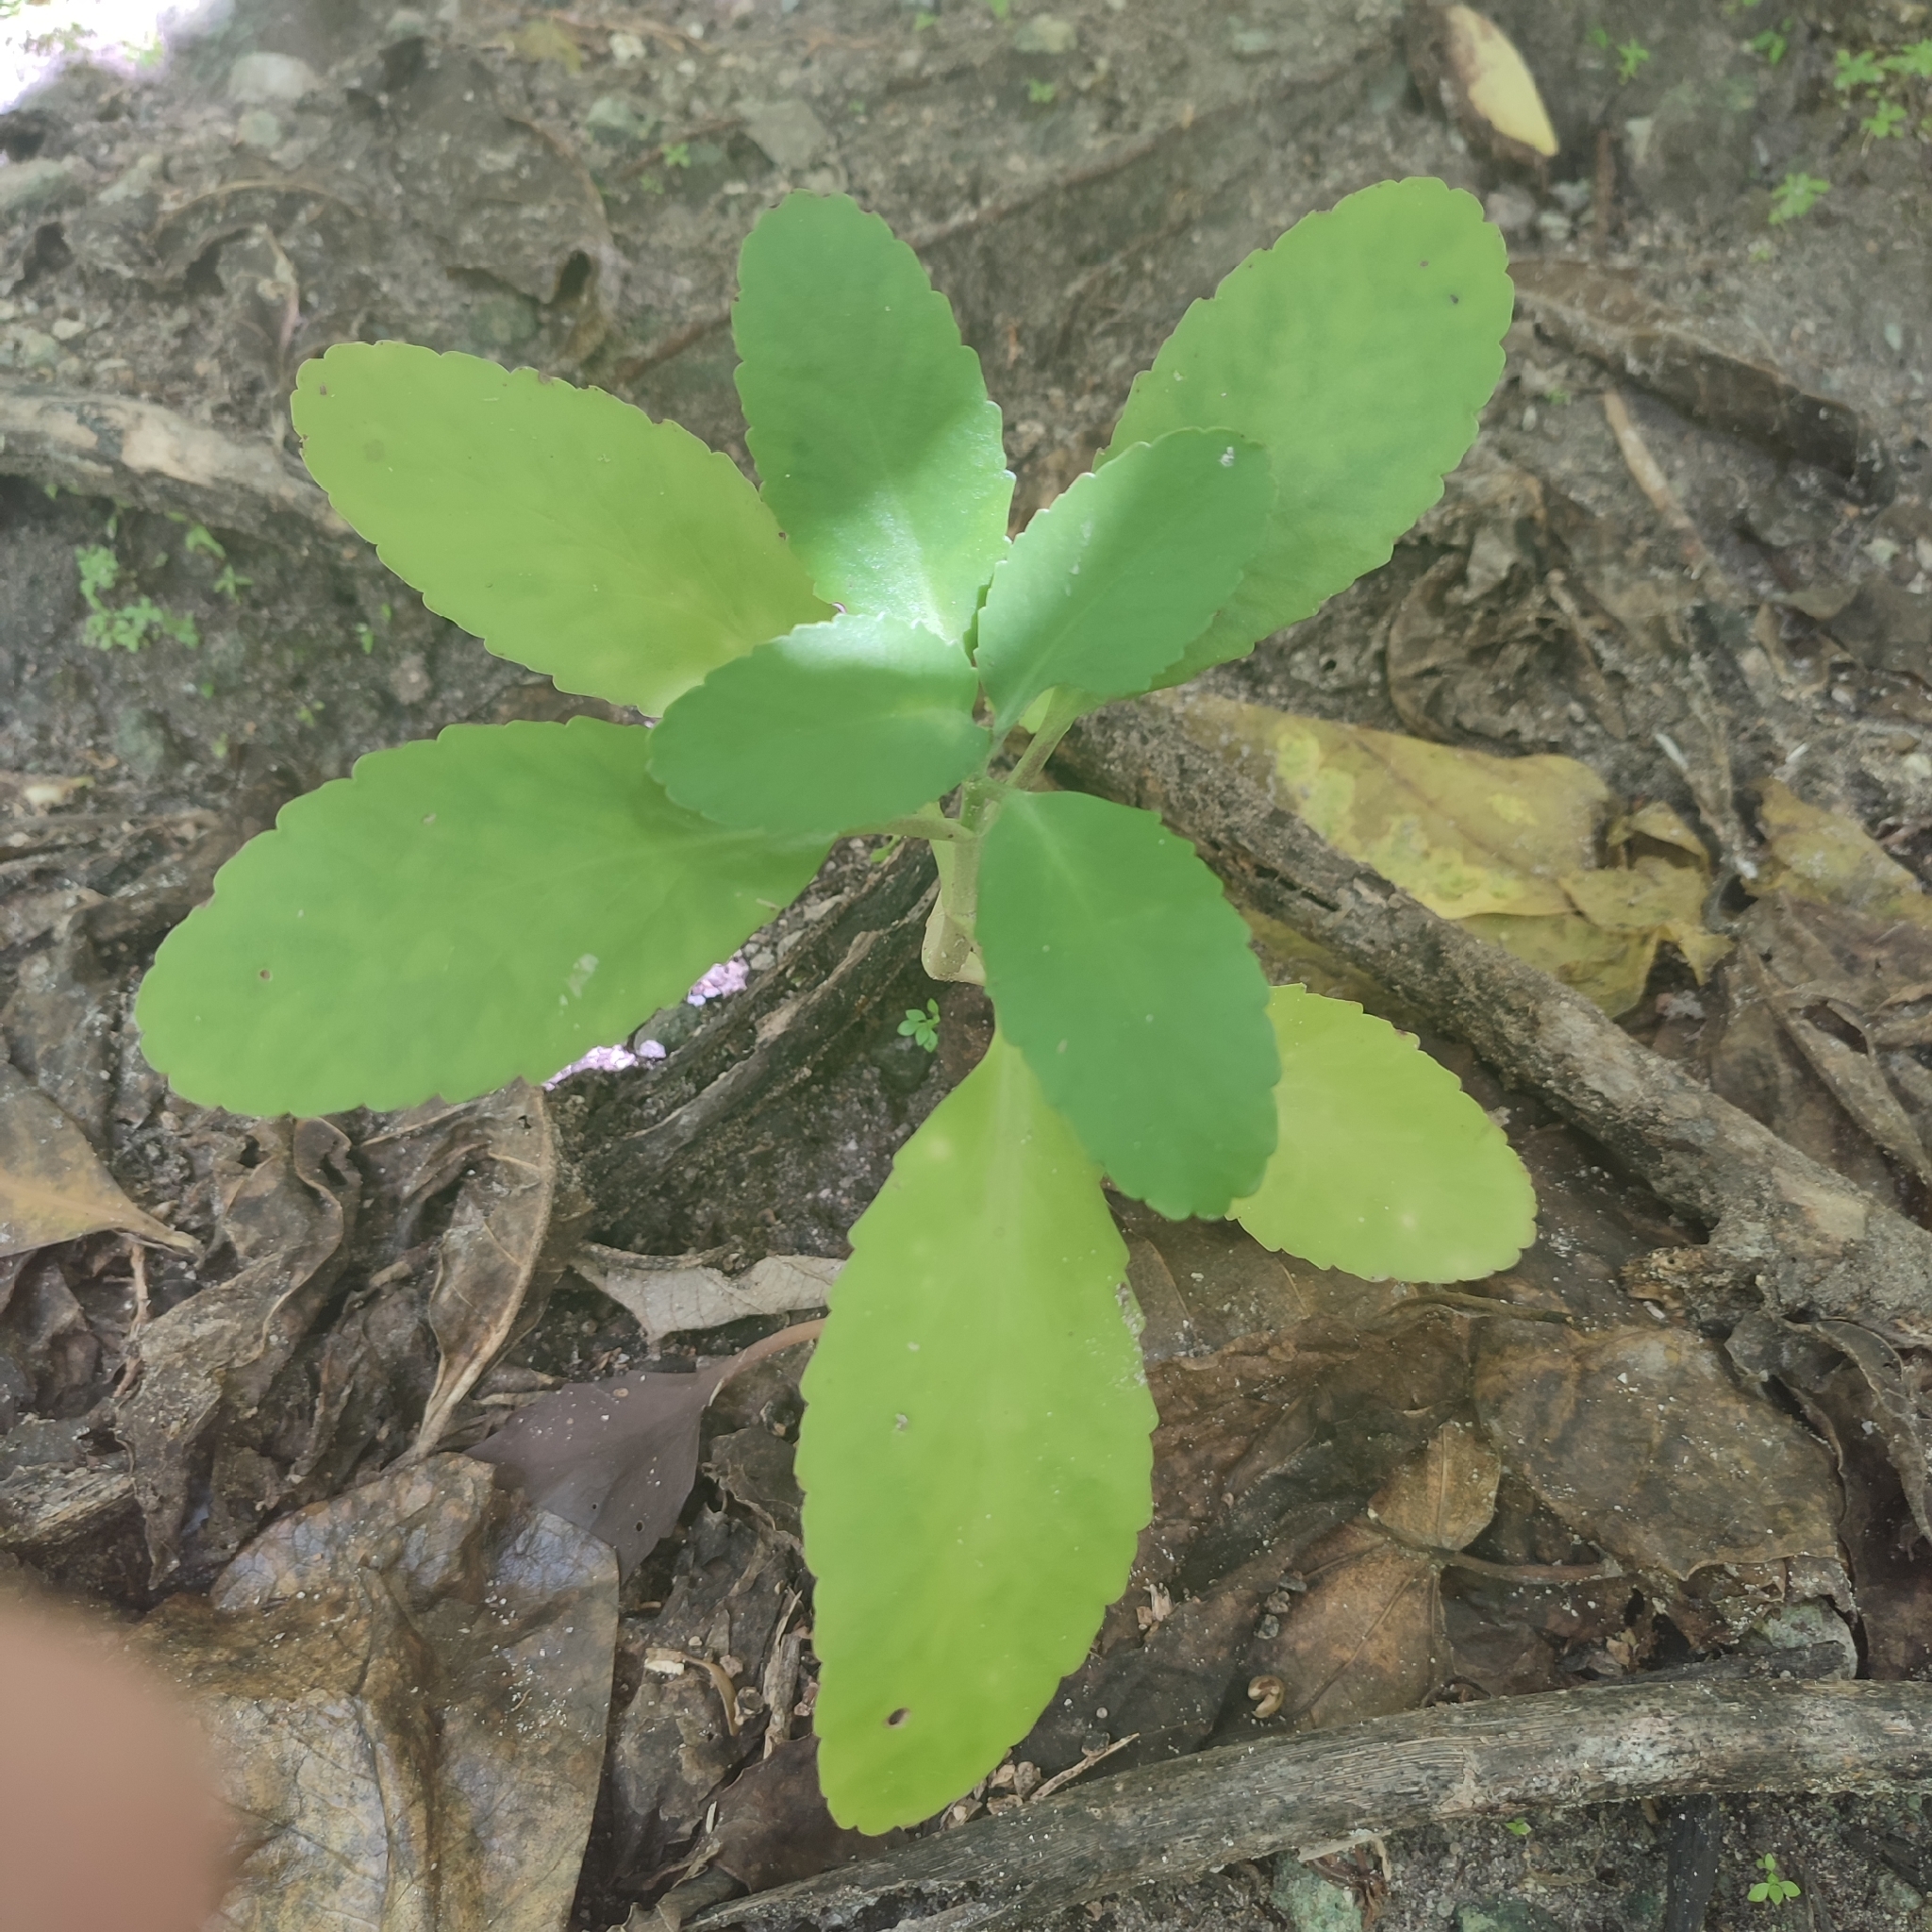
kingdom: Plantae
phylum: Tracheophyta
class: Magnoliopsida
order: Saxifragales
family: Crassulaceae
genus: Kalanchoe
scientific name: Kalanchoe pinnata
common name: Cathedral bells
